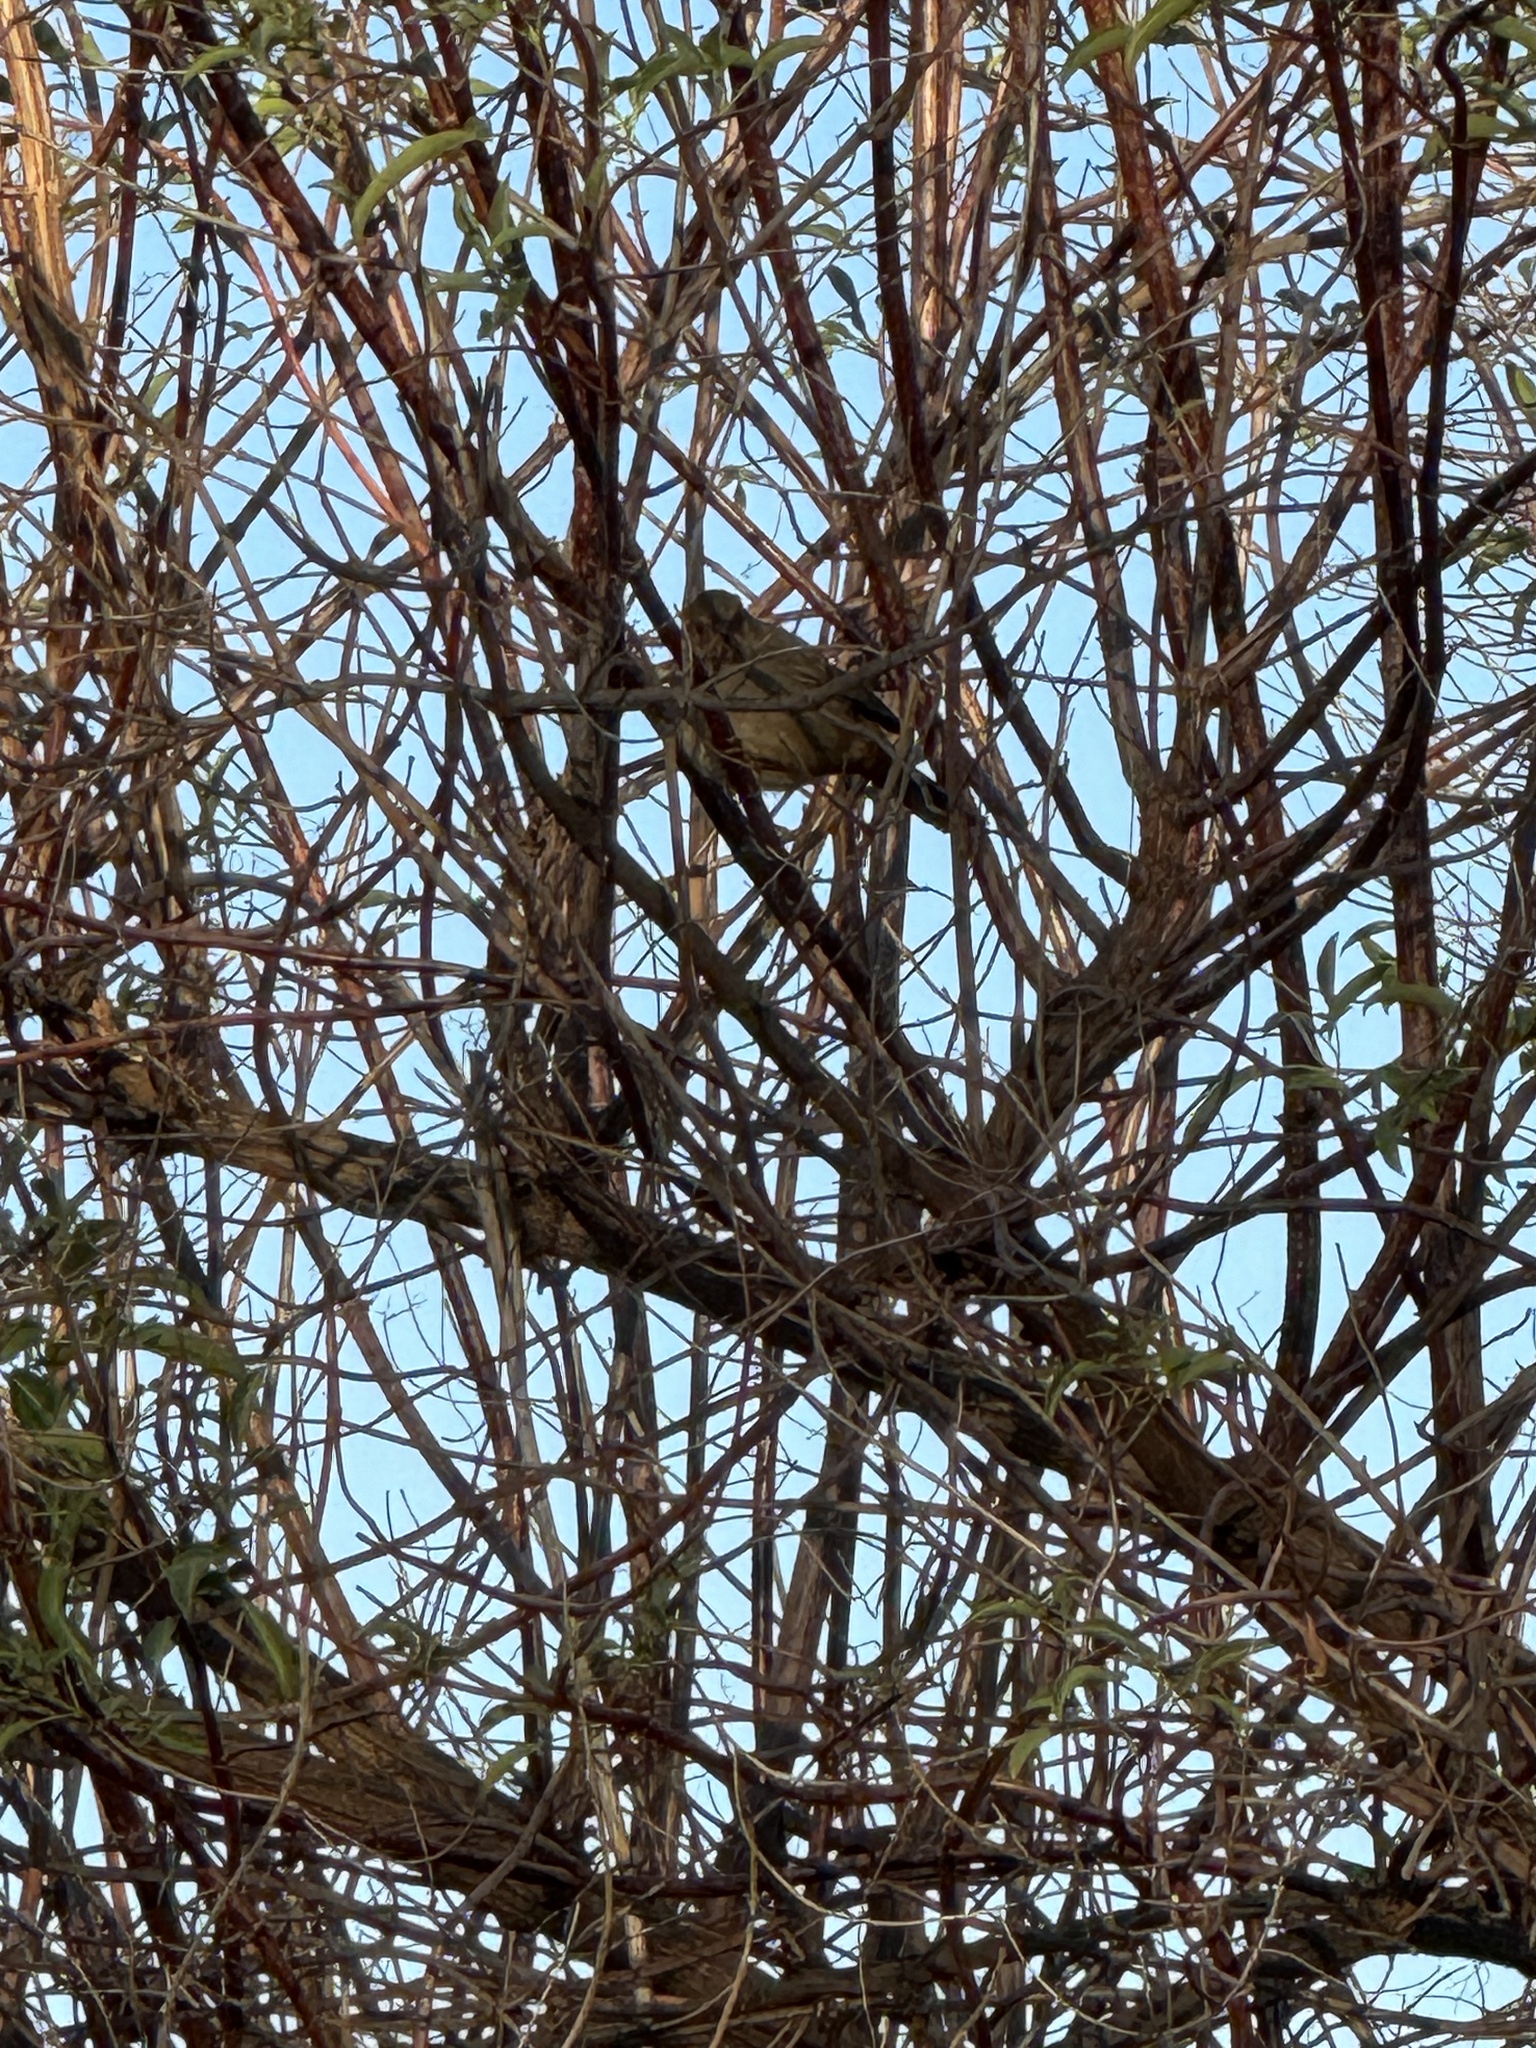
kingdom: Animalia
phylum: Chordata
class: Aves
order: Passeriformes
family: Passerellidae
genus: Melozone
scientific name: Melozone crissalis
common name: California towhee
